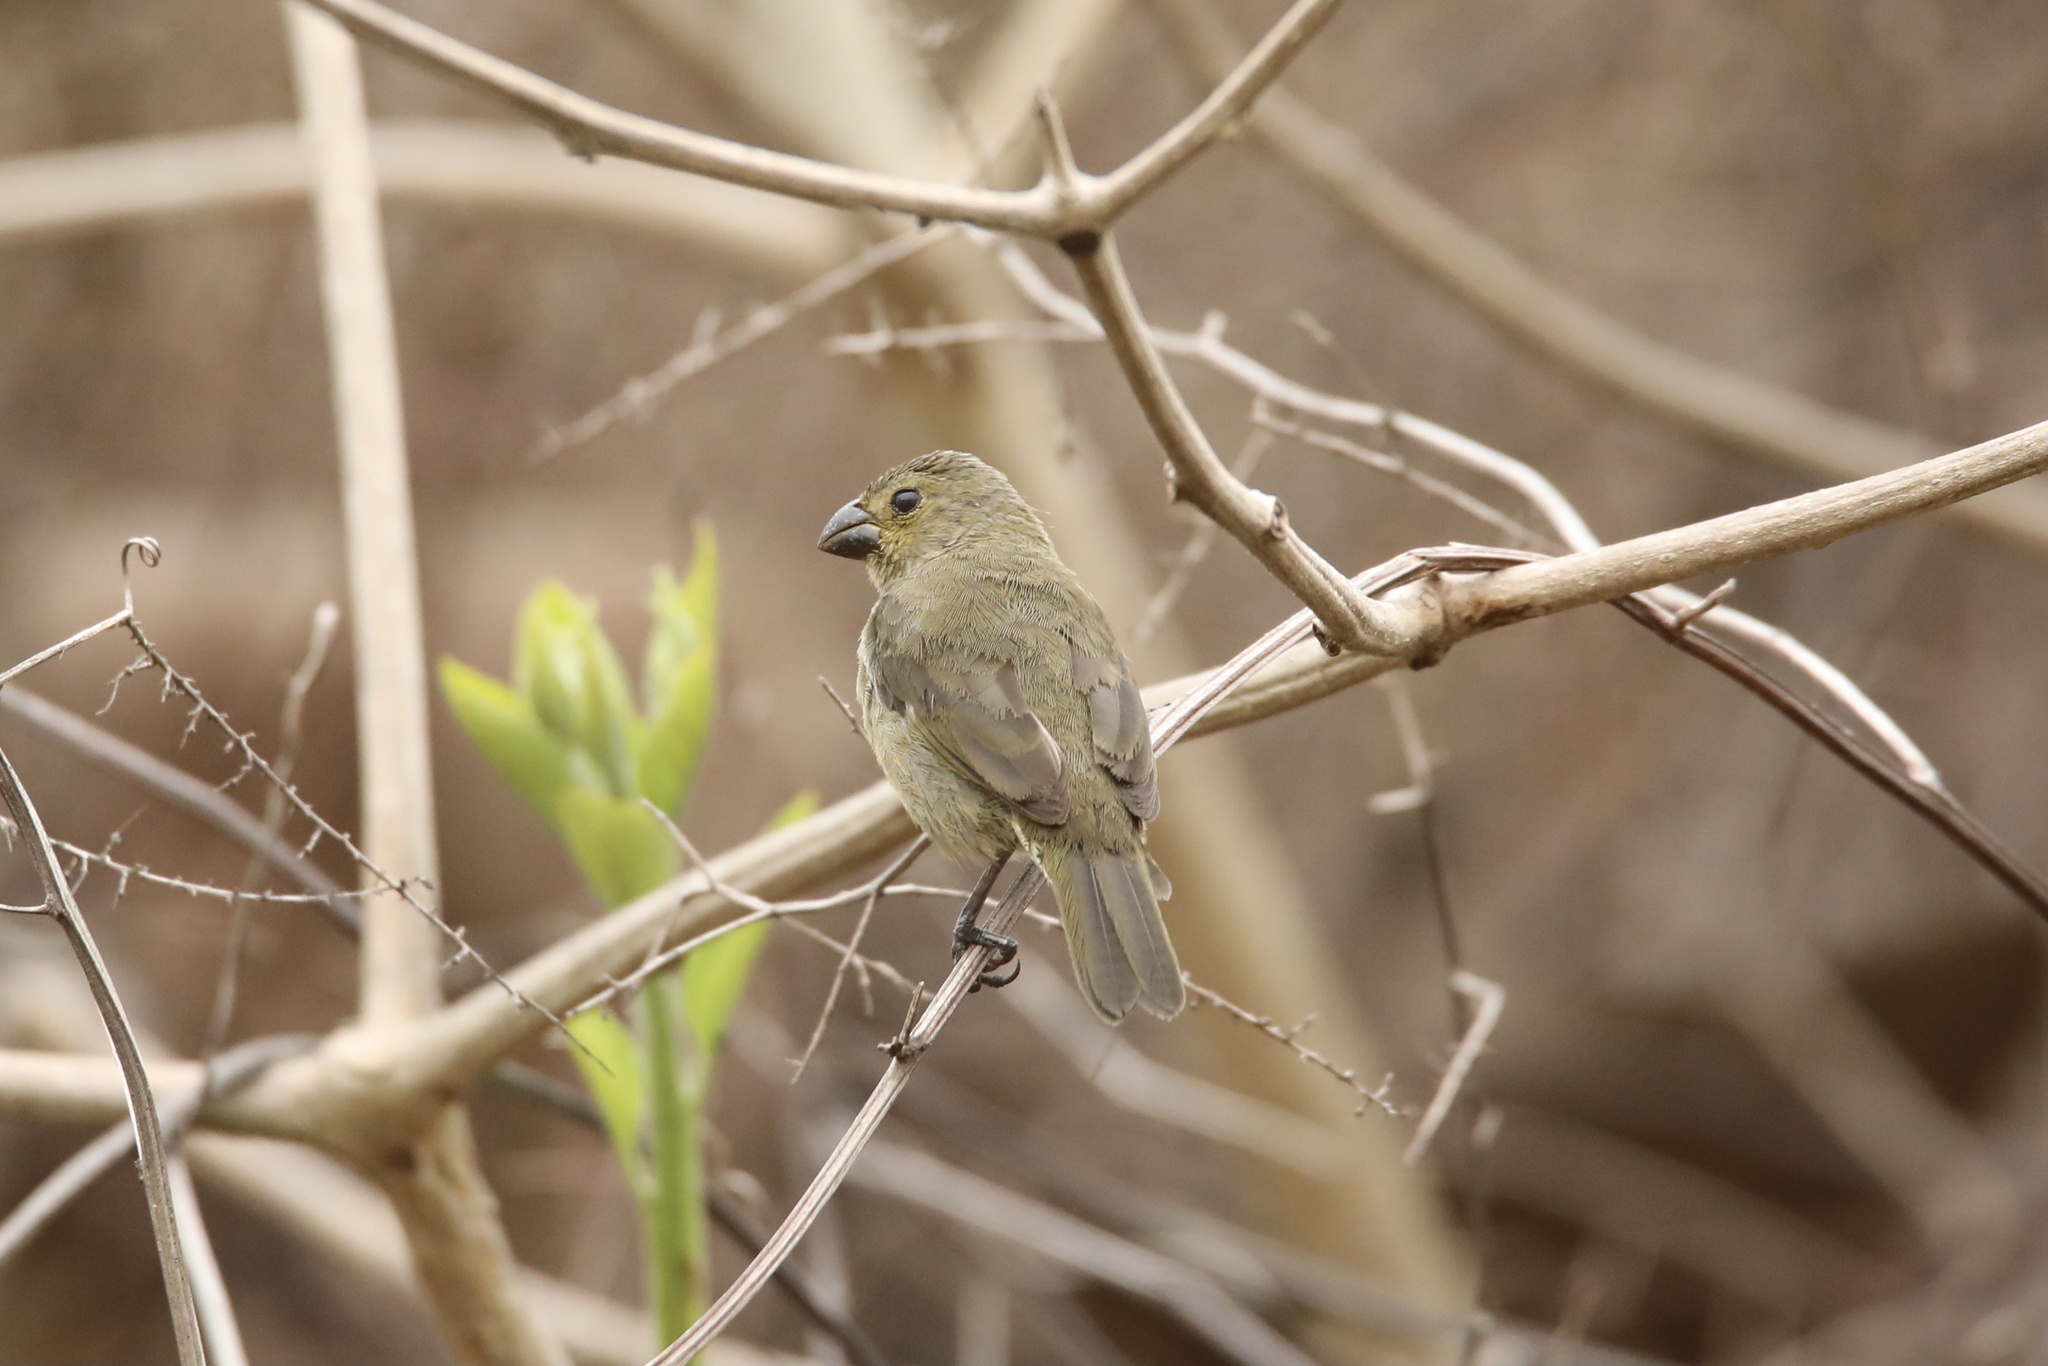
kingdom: Animalia
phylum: Chordata
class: Aves
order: Passeriformes
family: Thraupidae
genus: Sporophila
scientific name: Sporophila corvina
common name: Variable seedeater
